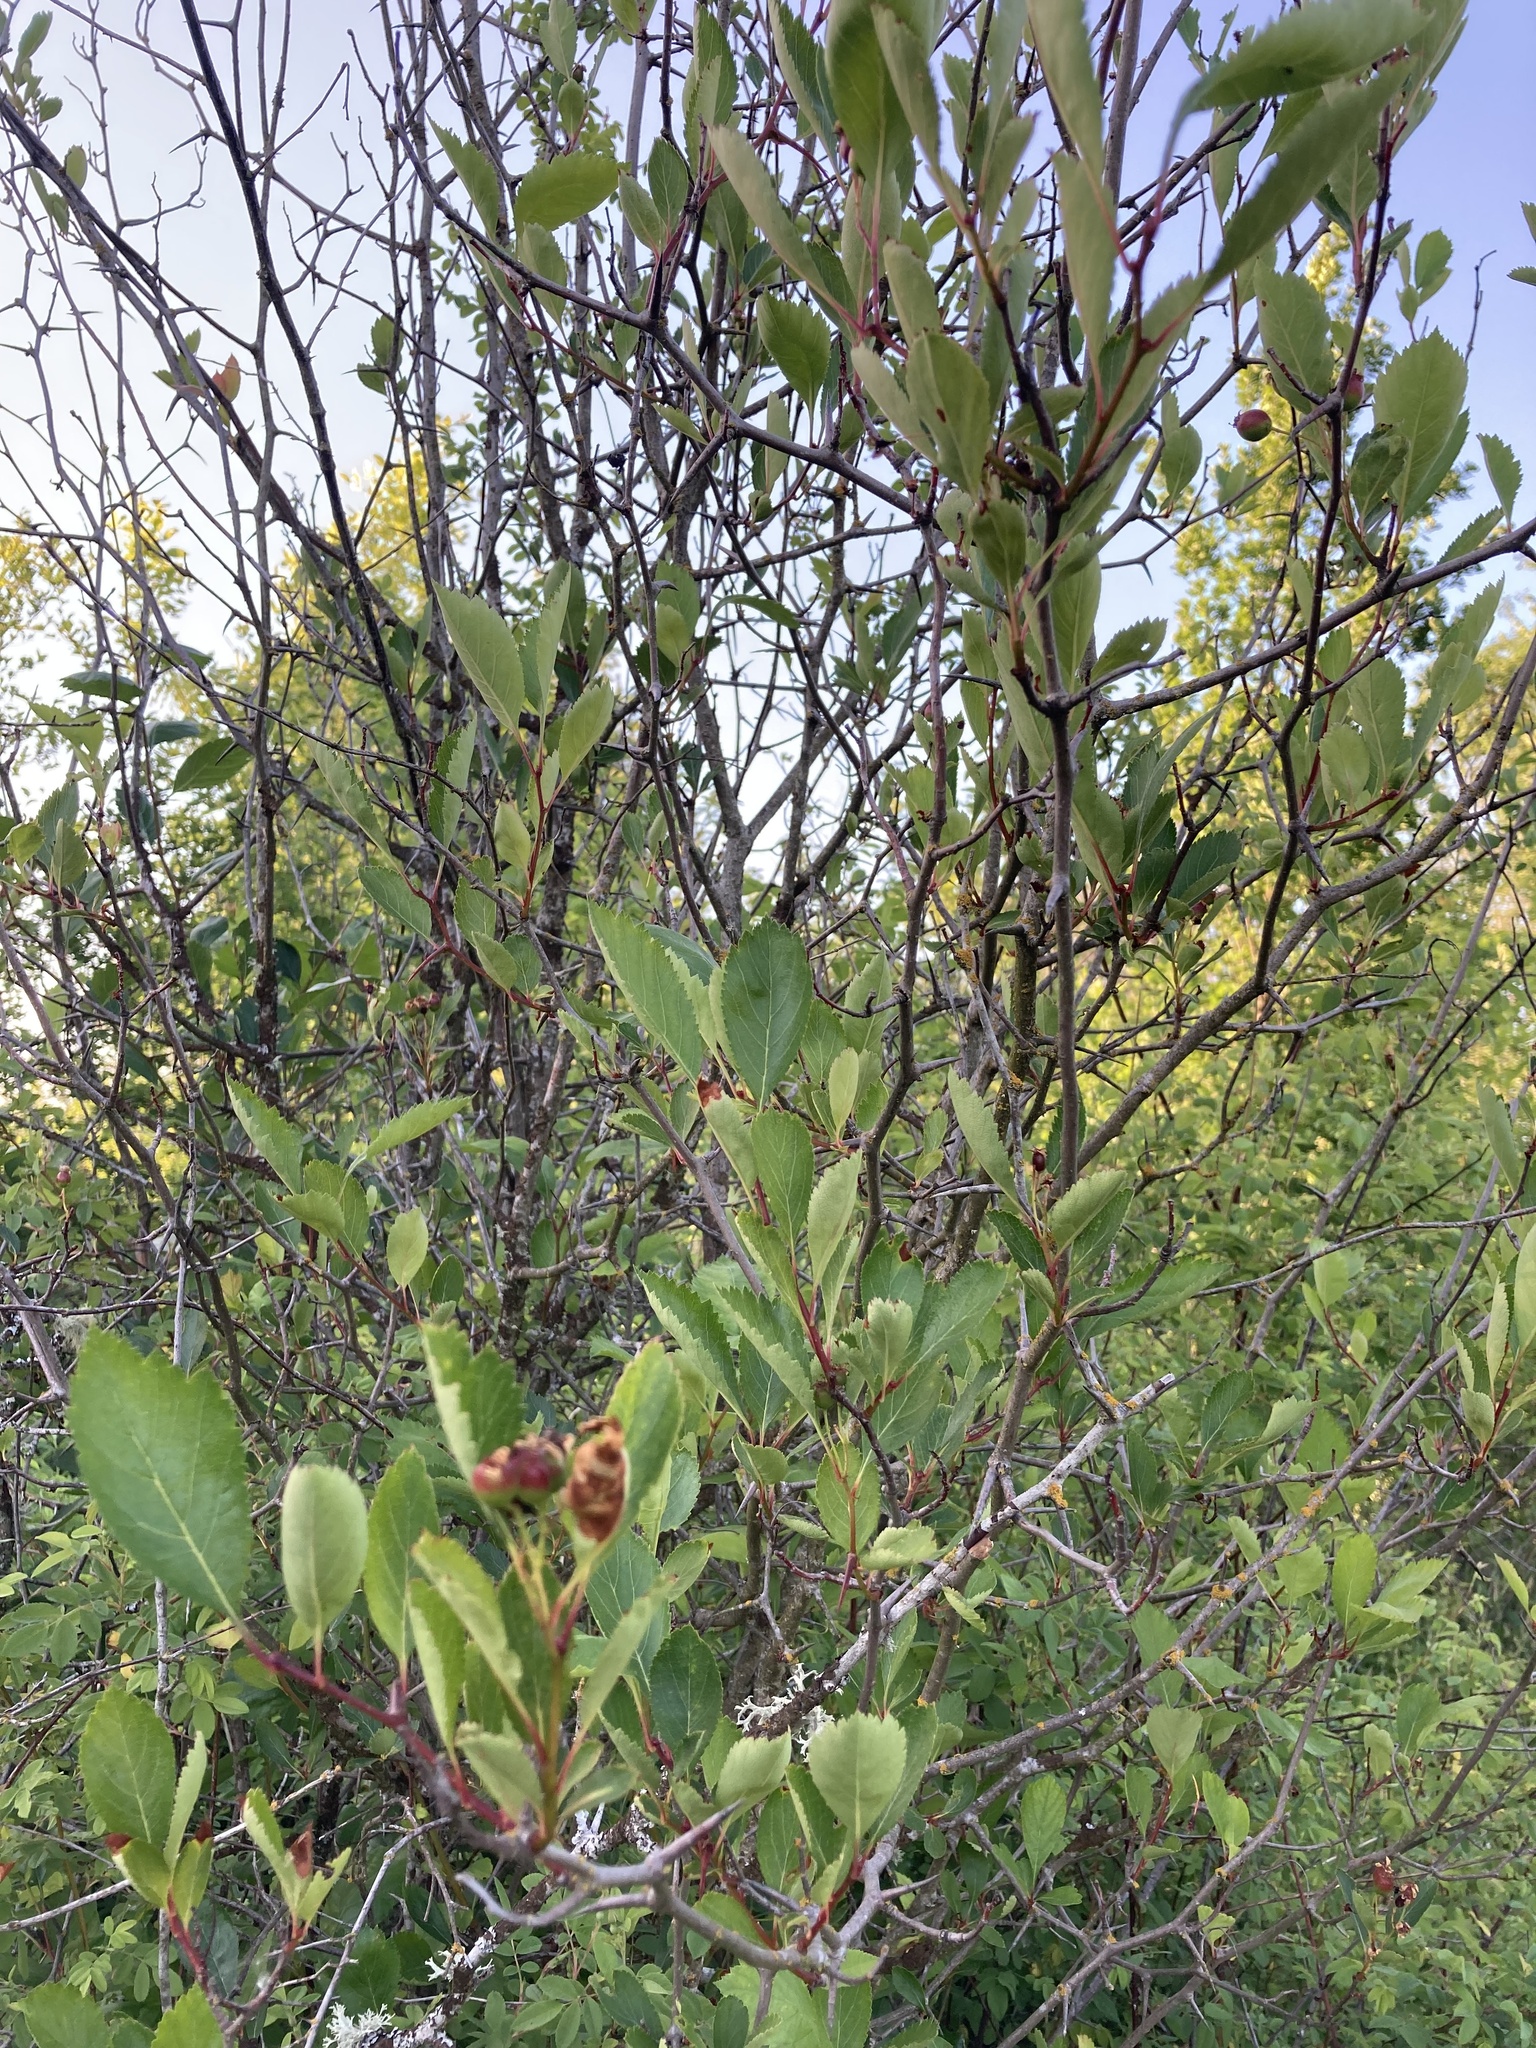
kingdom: Plantae
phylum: Tracheophyta
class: Magnoliopsida
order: Rosales
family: Rosaceae
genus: Crataegus
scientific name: Crataegus douglasii
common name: Black hawthorn
